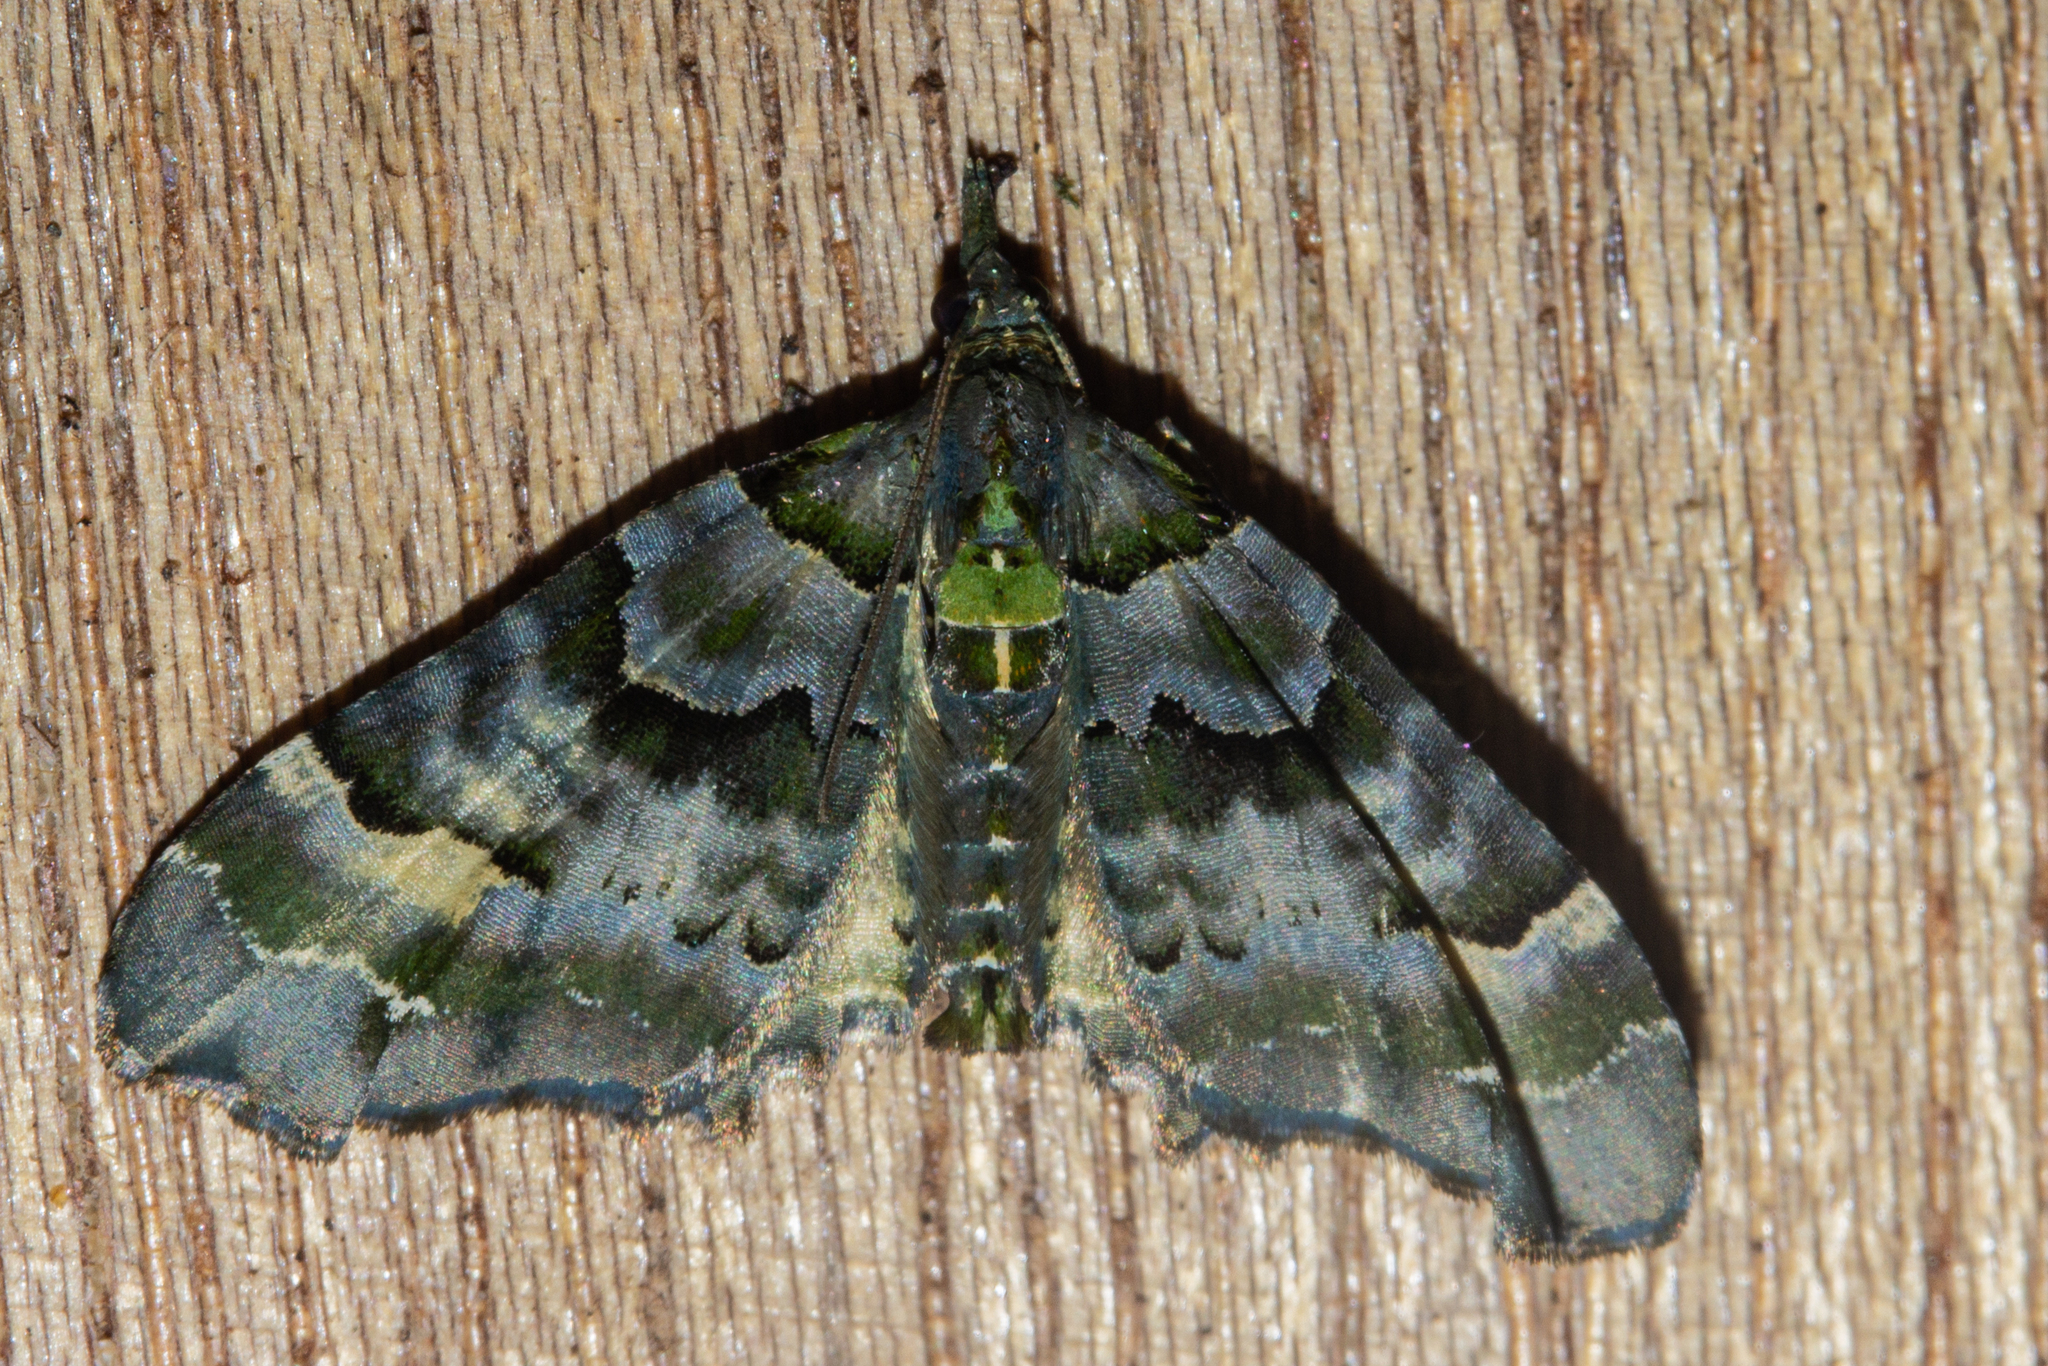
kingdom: Animalia
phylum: Arthropoda
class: Insecta
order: Lepidoptera
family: Geometridae
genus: Elvia
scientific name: Elvia glaucata
